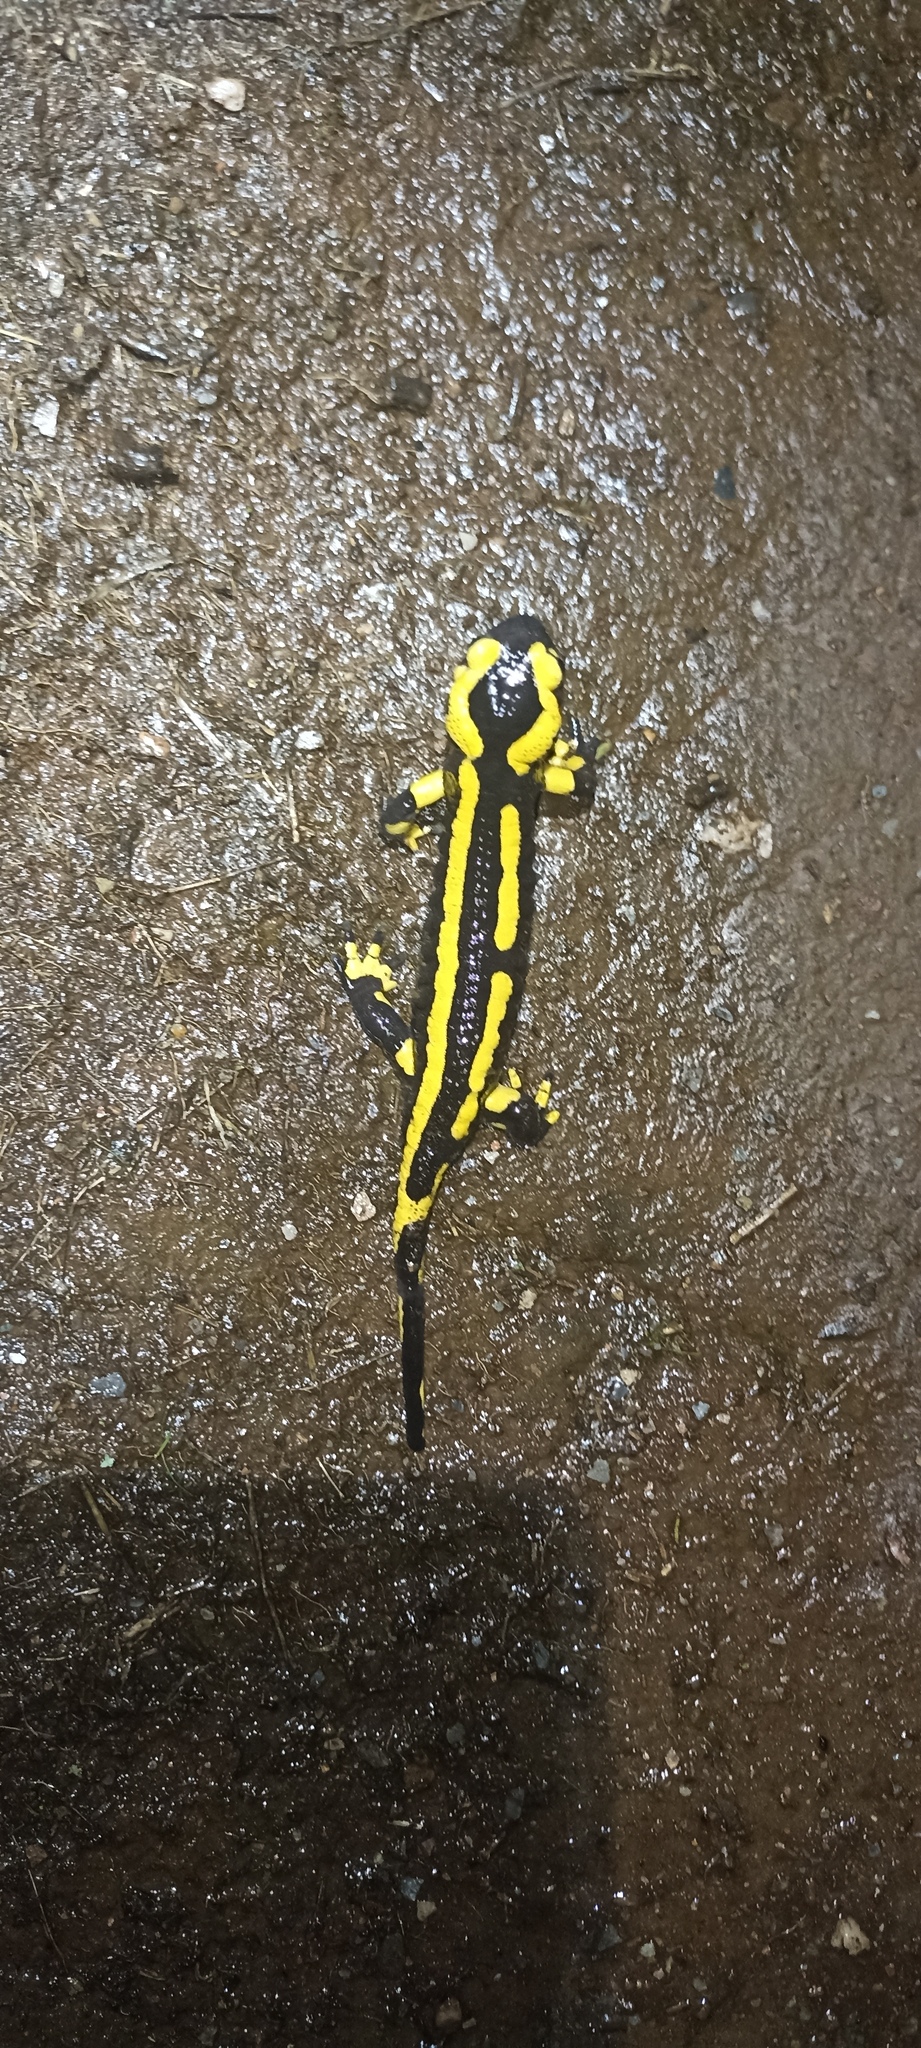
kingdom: Animalia
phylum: Chordata
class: Amphibia
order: Caudata
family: Salamandridae
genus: Salamandra
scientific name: Salamandra salamandra
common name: Fire salamander
